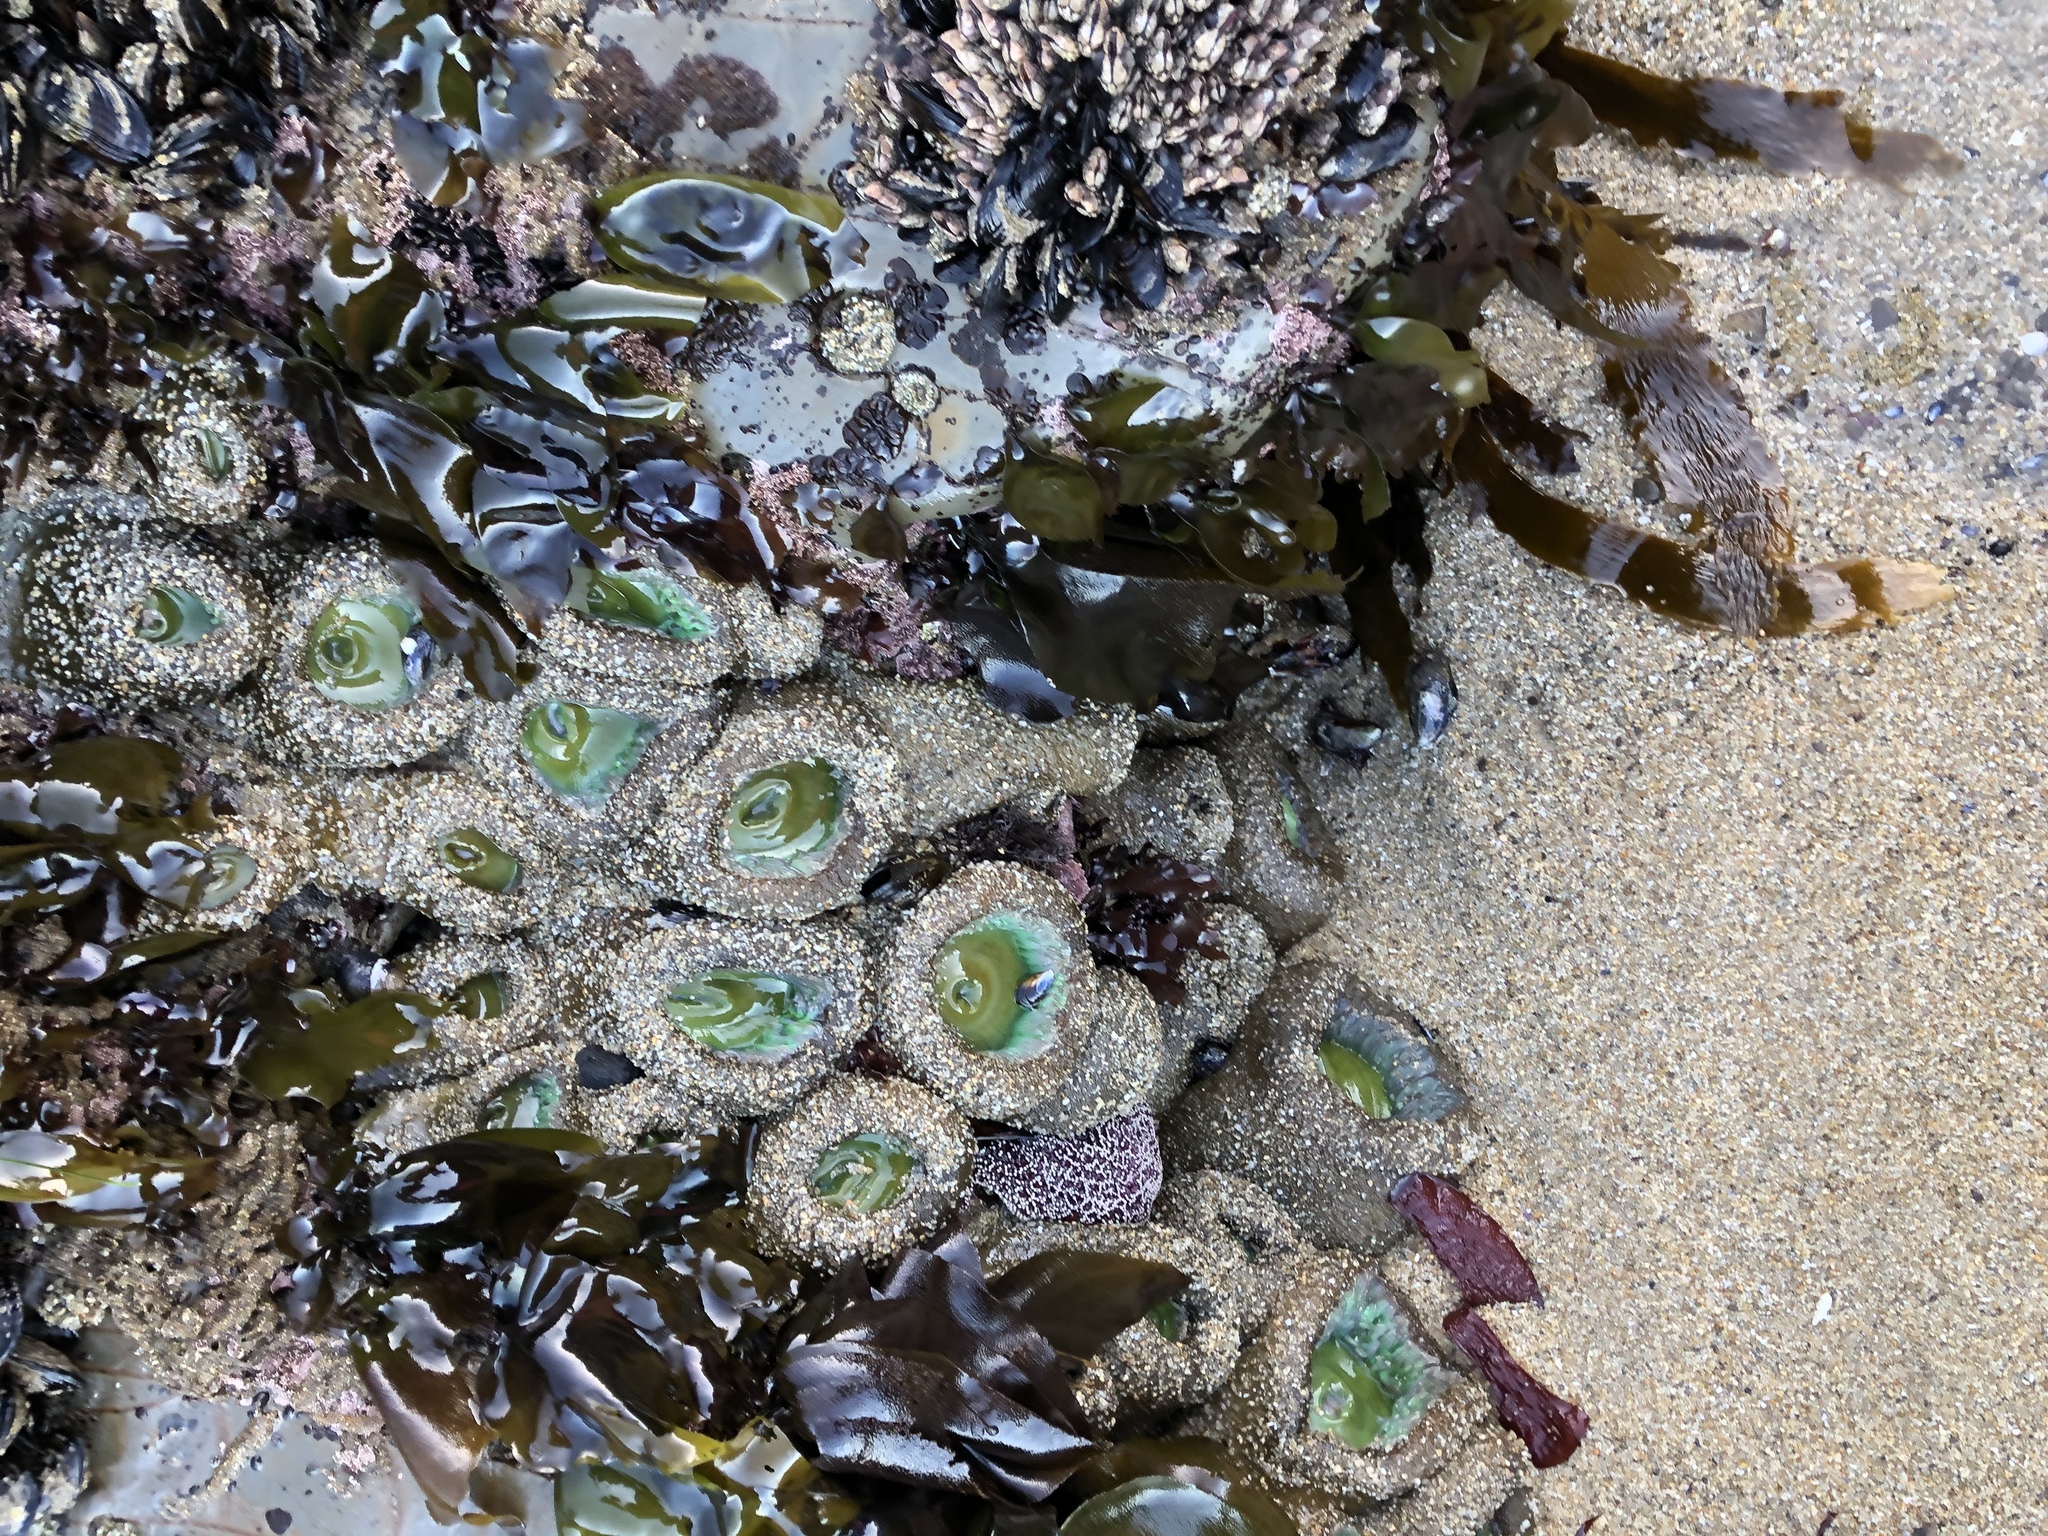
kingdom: Animalia
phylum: Cnidaria
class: Anthozoa
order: Actiniaria
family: Actiniidae
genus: Anthopleura
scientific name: Anthopleura xanthogrammica
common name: Giant green anemone
